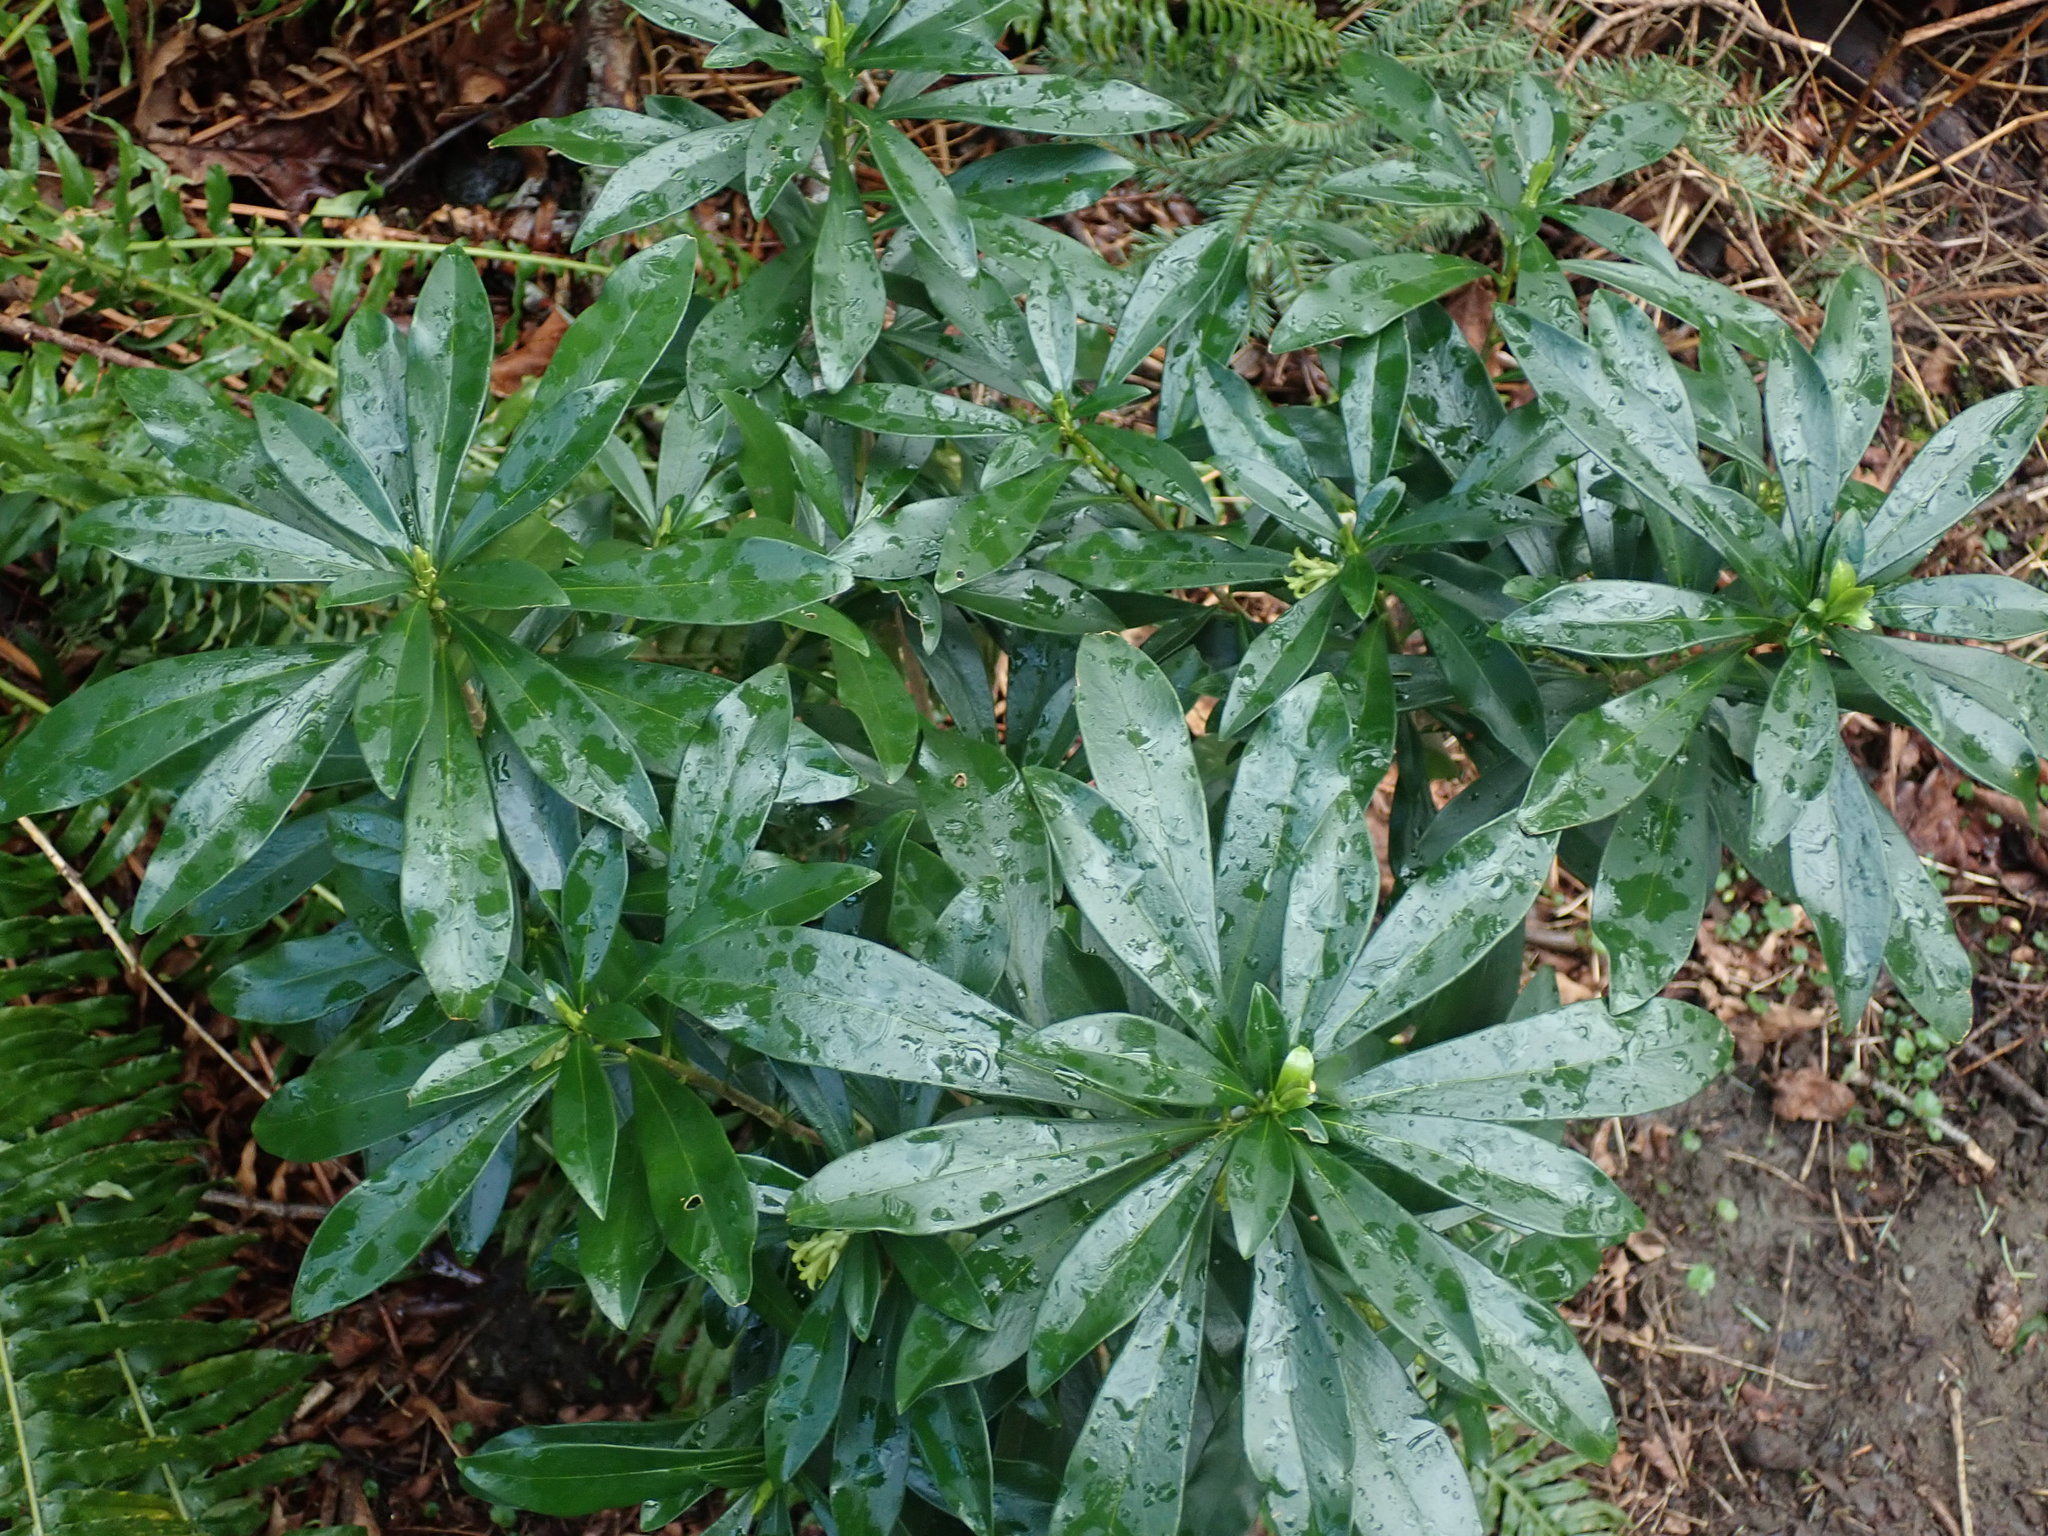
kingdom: Plantae
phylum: Tracheophyta
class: Magnoliopsida
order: Malvales
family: Thymelaeaceae
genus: Daphne
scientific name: Daphne laureola
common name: Spurge-laurel
